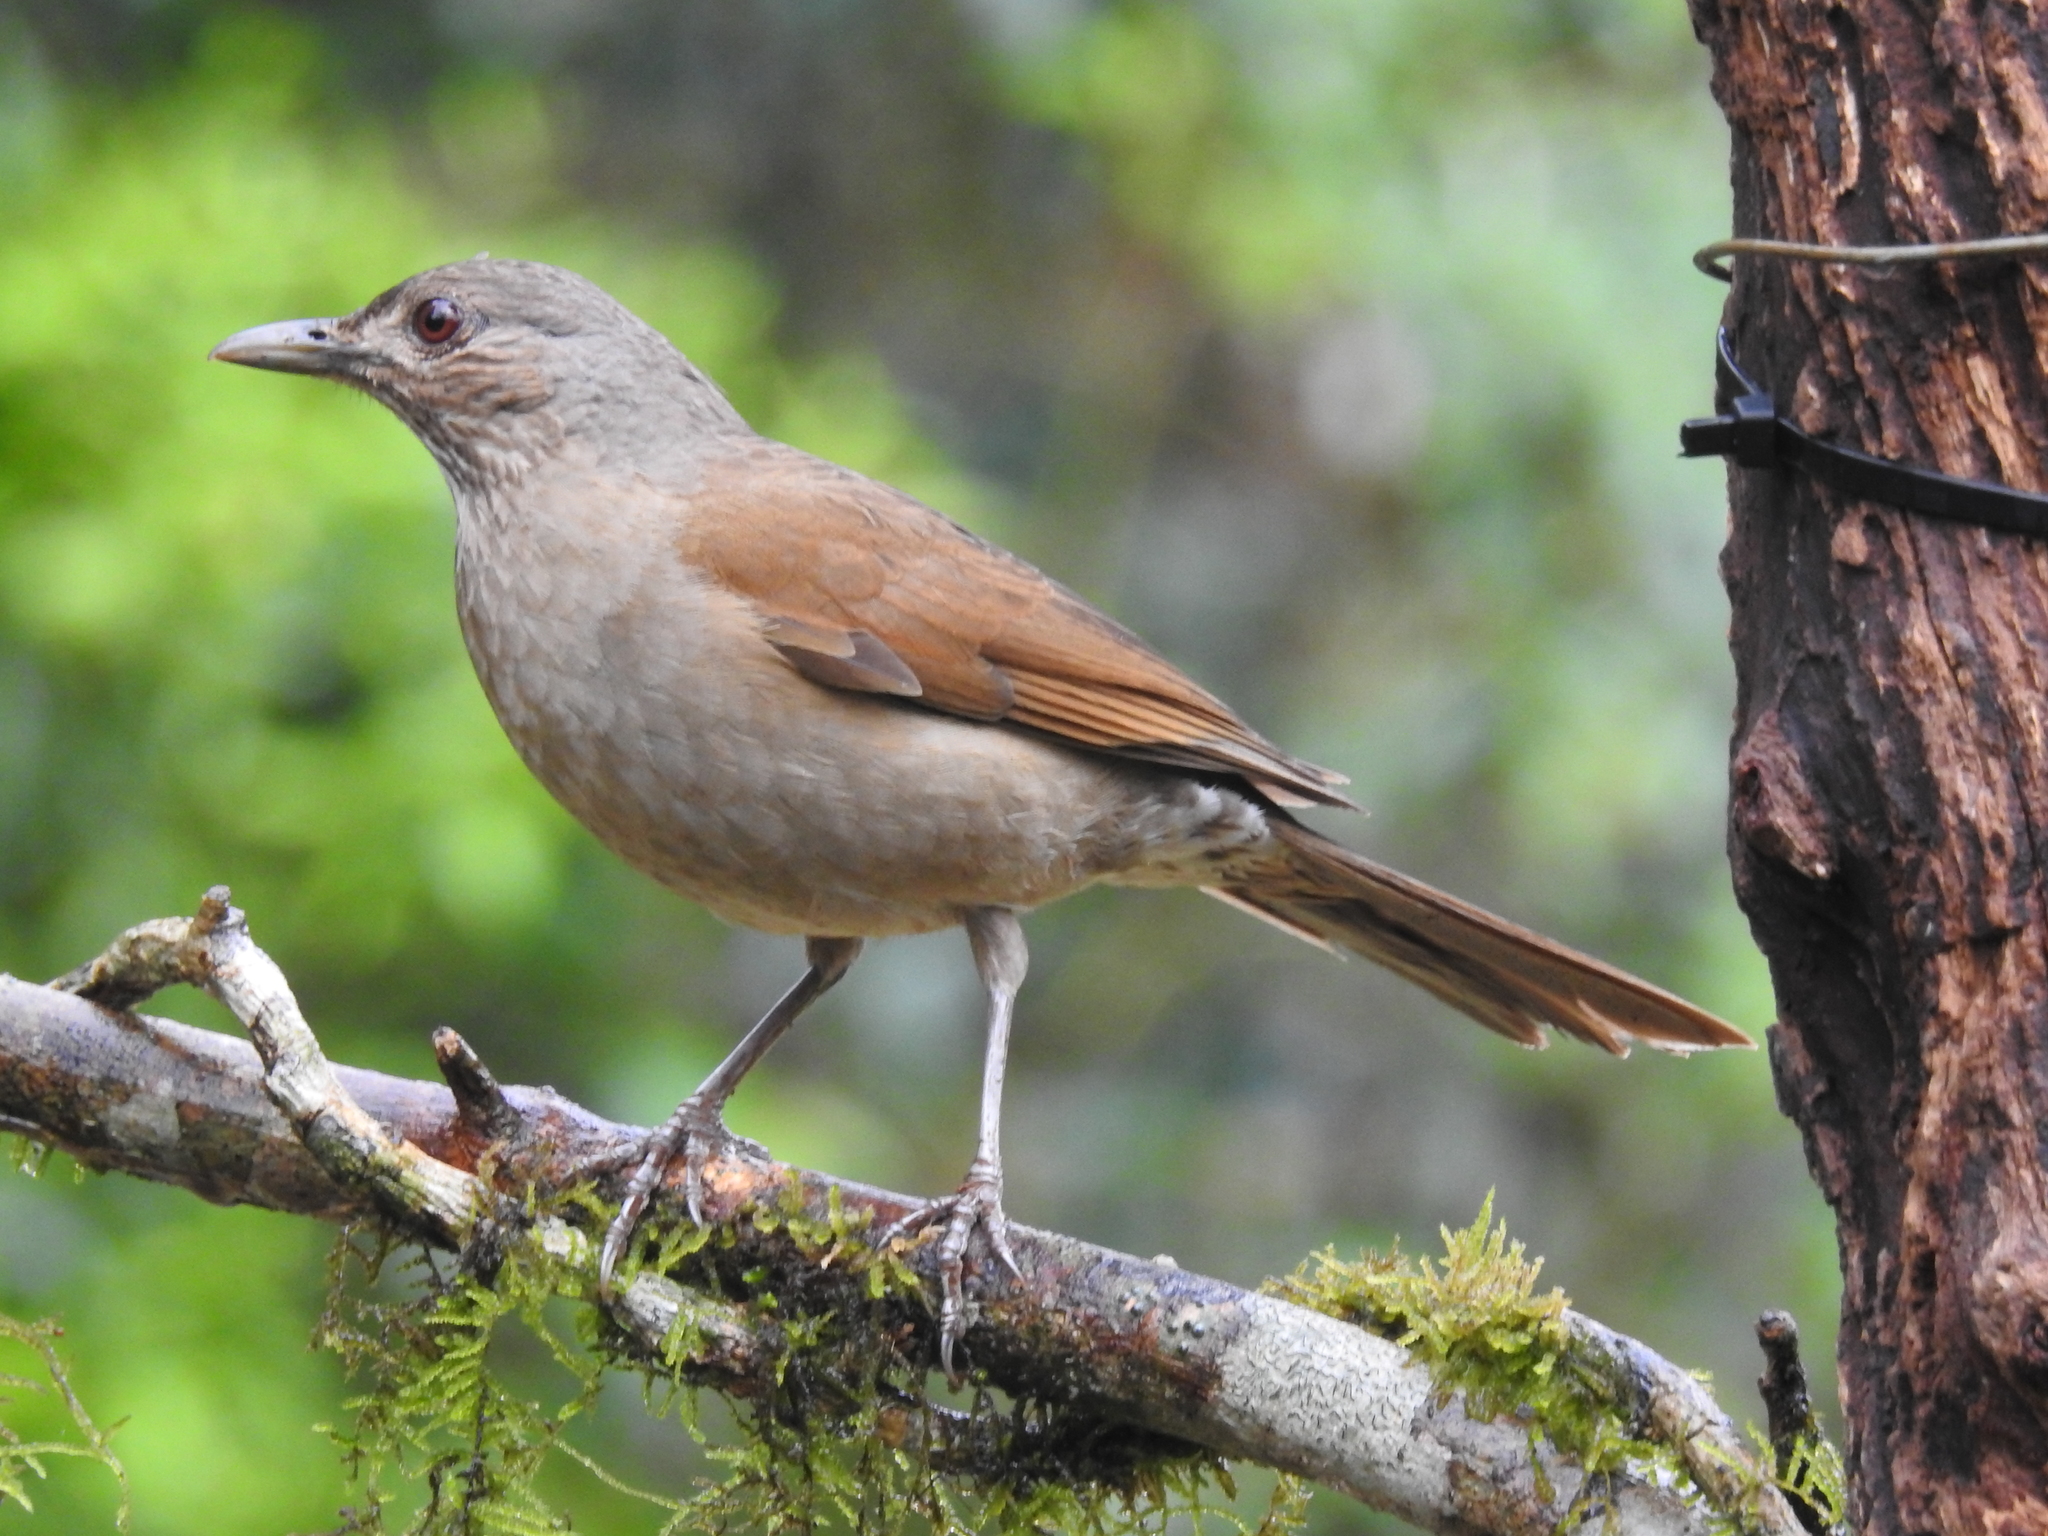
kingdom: Animalia
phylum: Chordata
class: Aves
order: Passeriformes
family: Turdidae
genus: Turdus
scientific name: Turdus leucomelas
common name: Pale-breasted thrush
